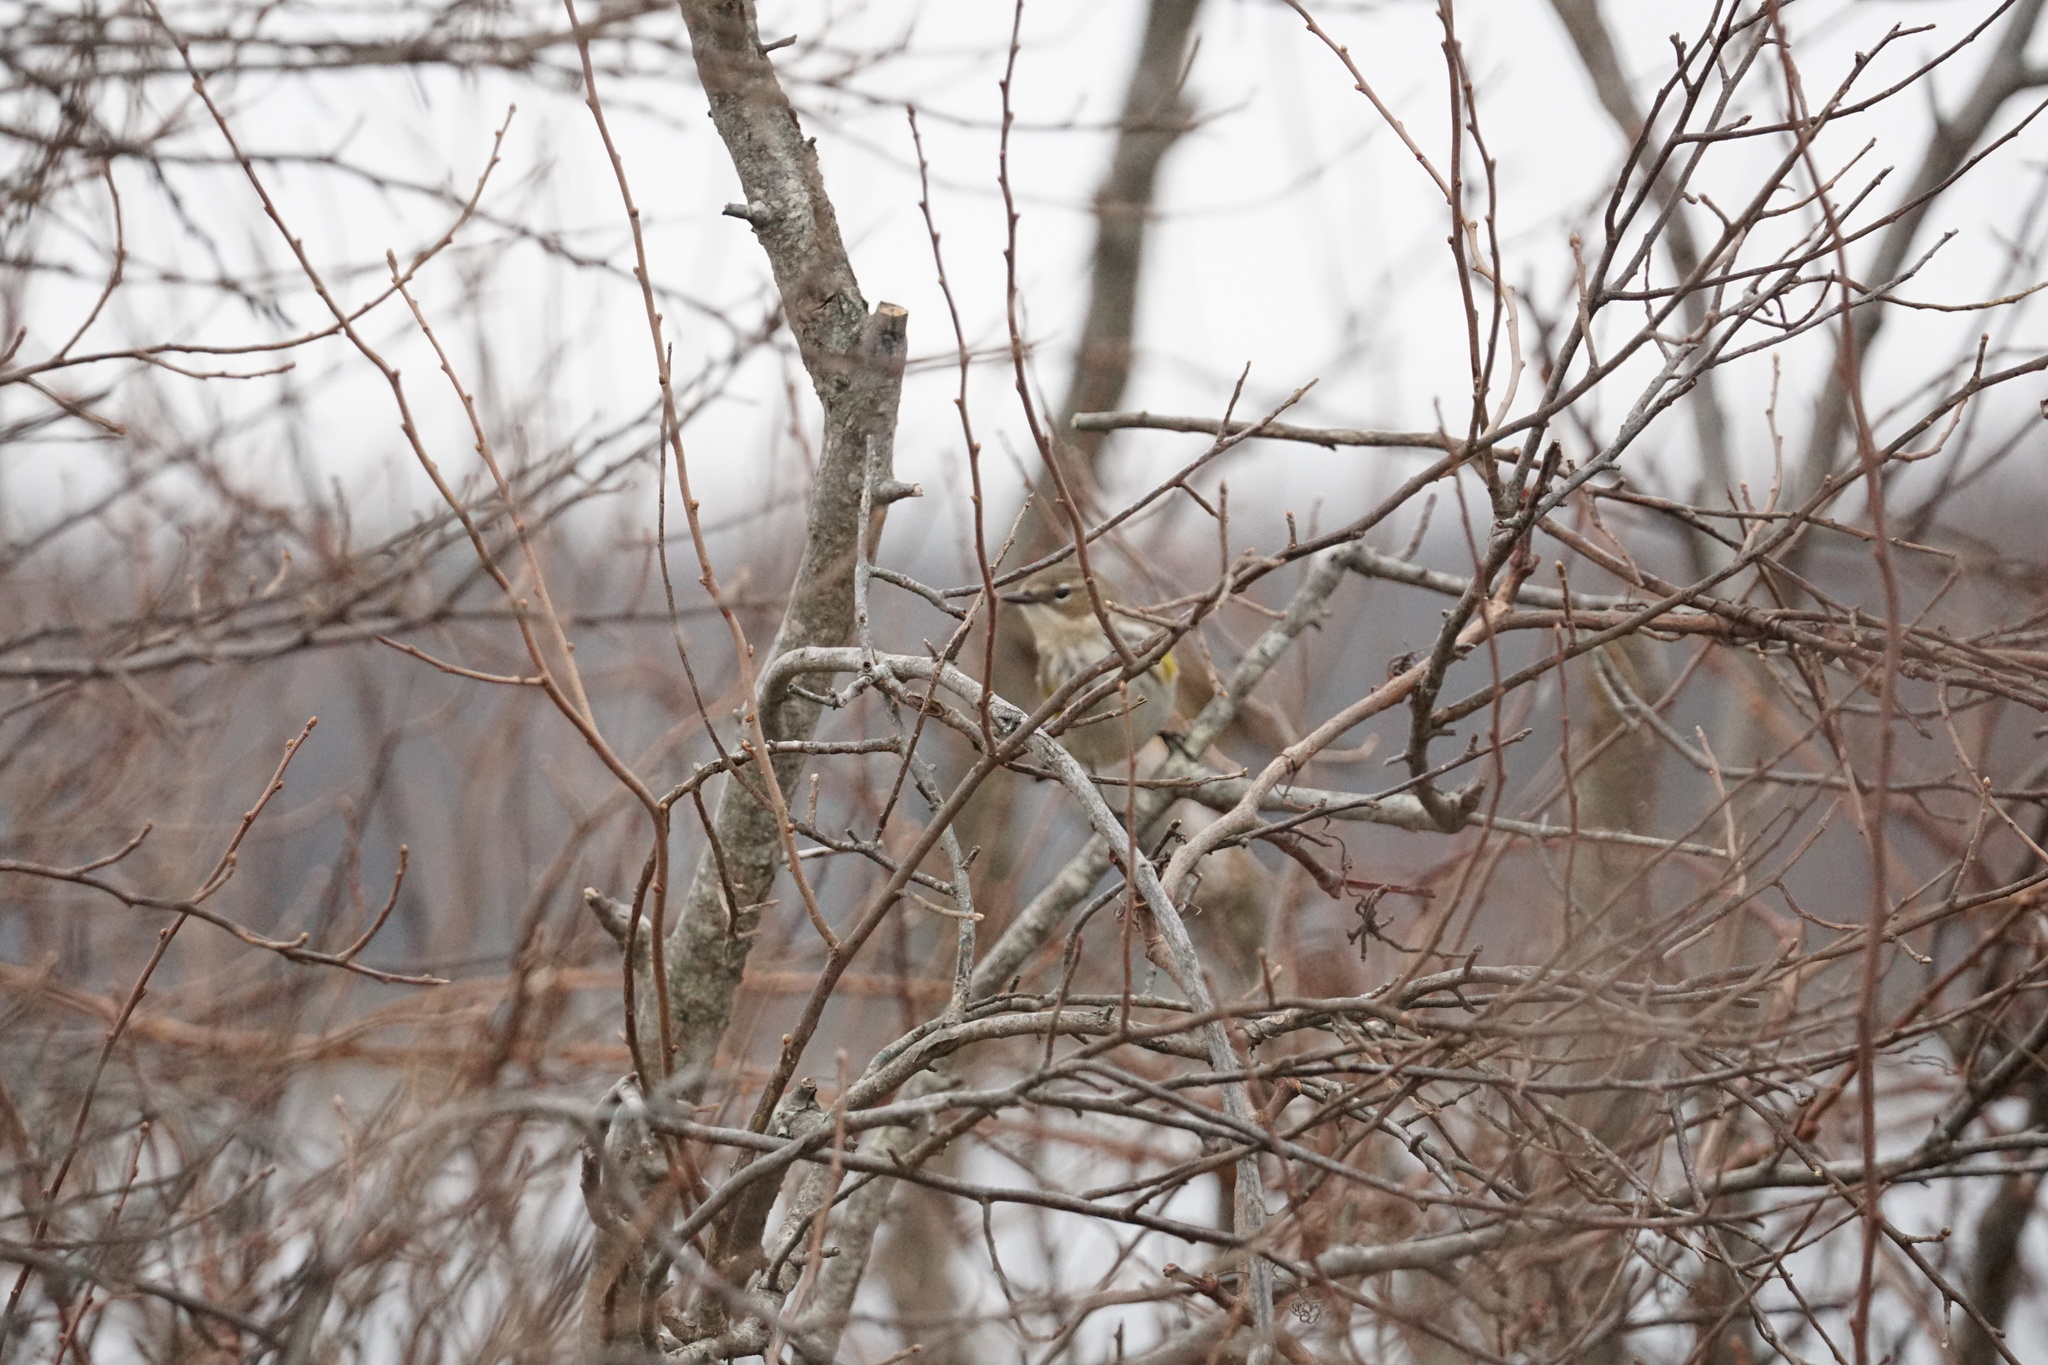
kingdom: Animalia
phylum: Chordata
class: Aves
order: Passeriformes
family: Parulidae
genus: Setophaga
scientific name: Setophaga coronata
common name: Myrtle warbler
